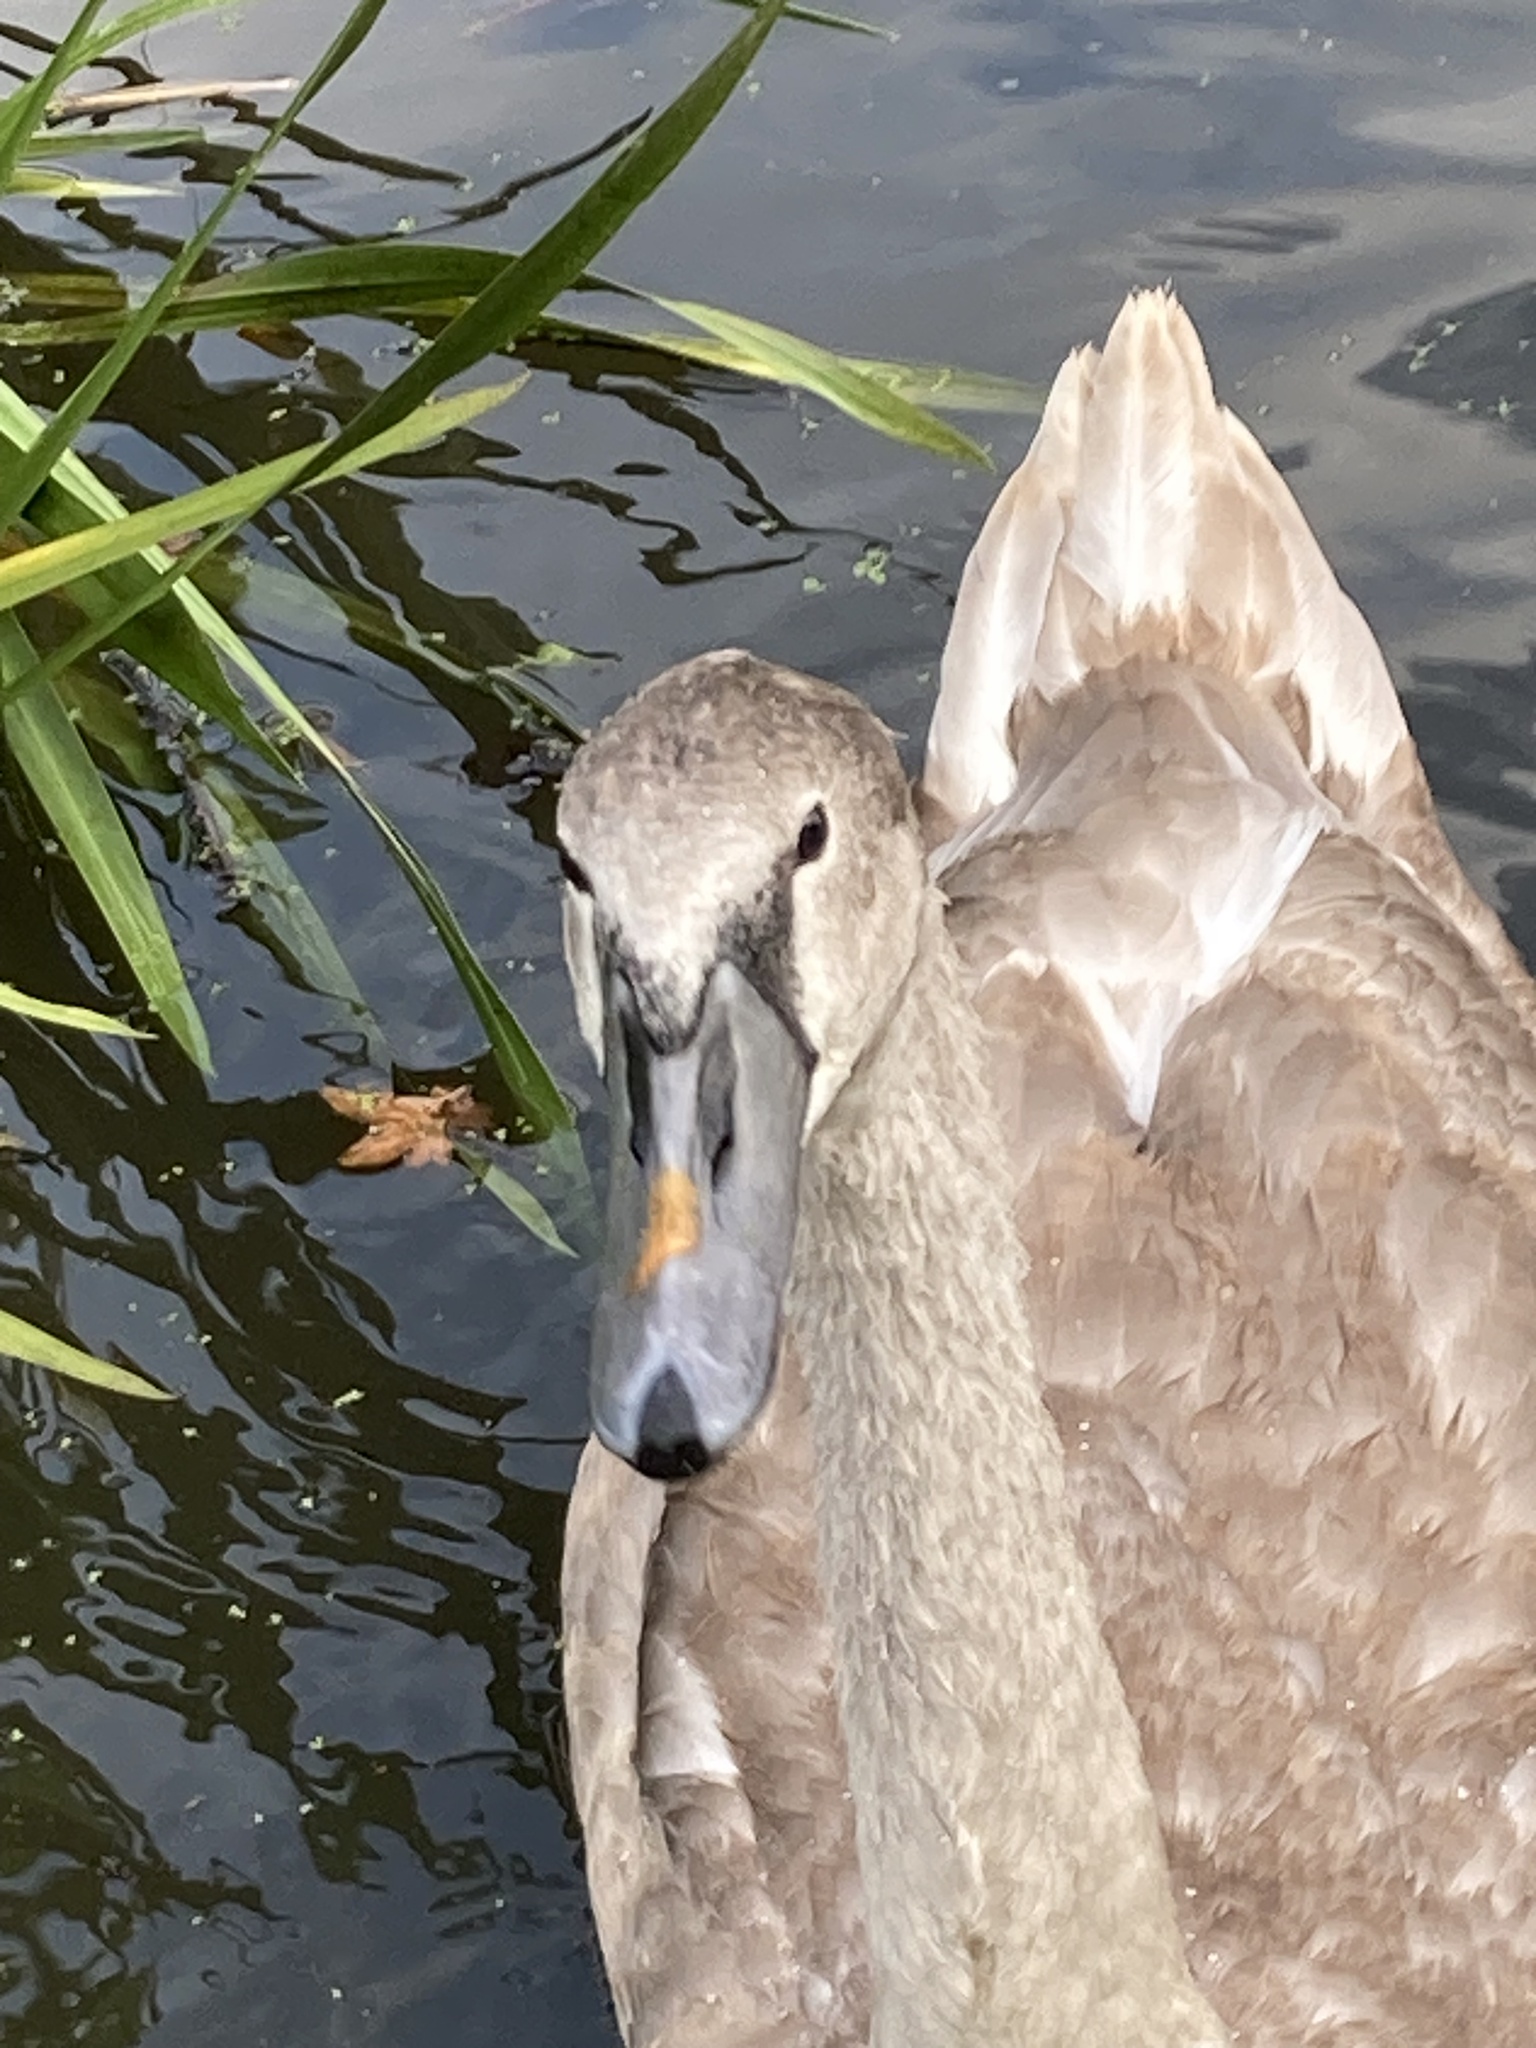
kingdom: Animalia
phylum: Chordata
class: Aves
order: Anseriformes
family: Anatidae
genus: Cygnus
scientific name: Cygnus olor
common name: Mute swan
